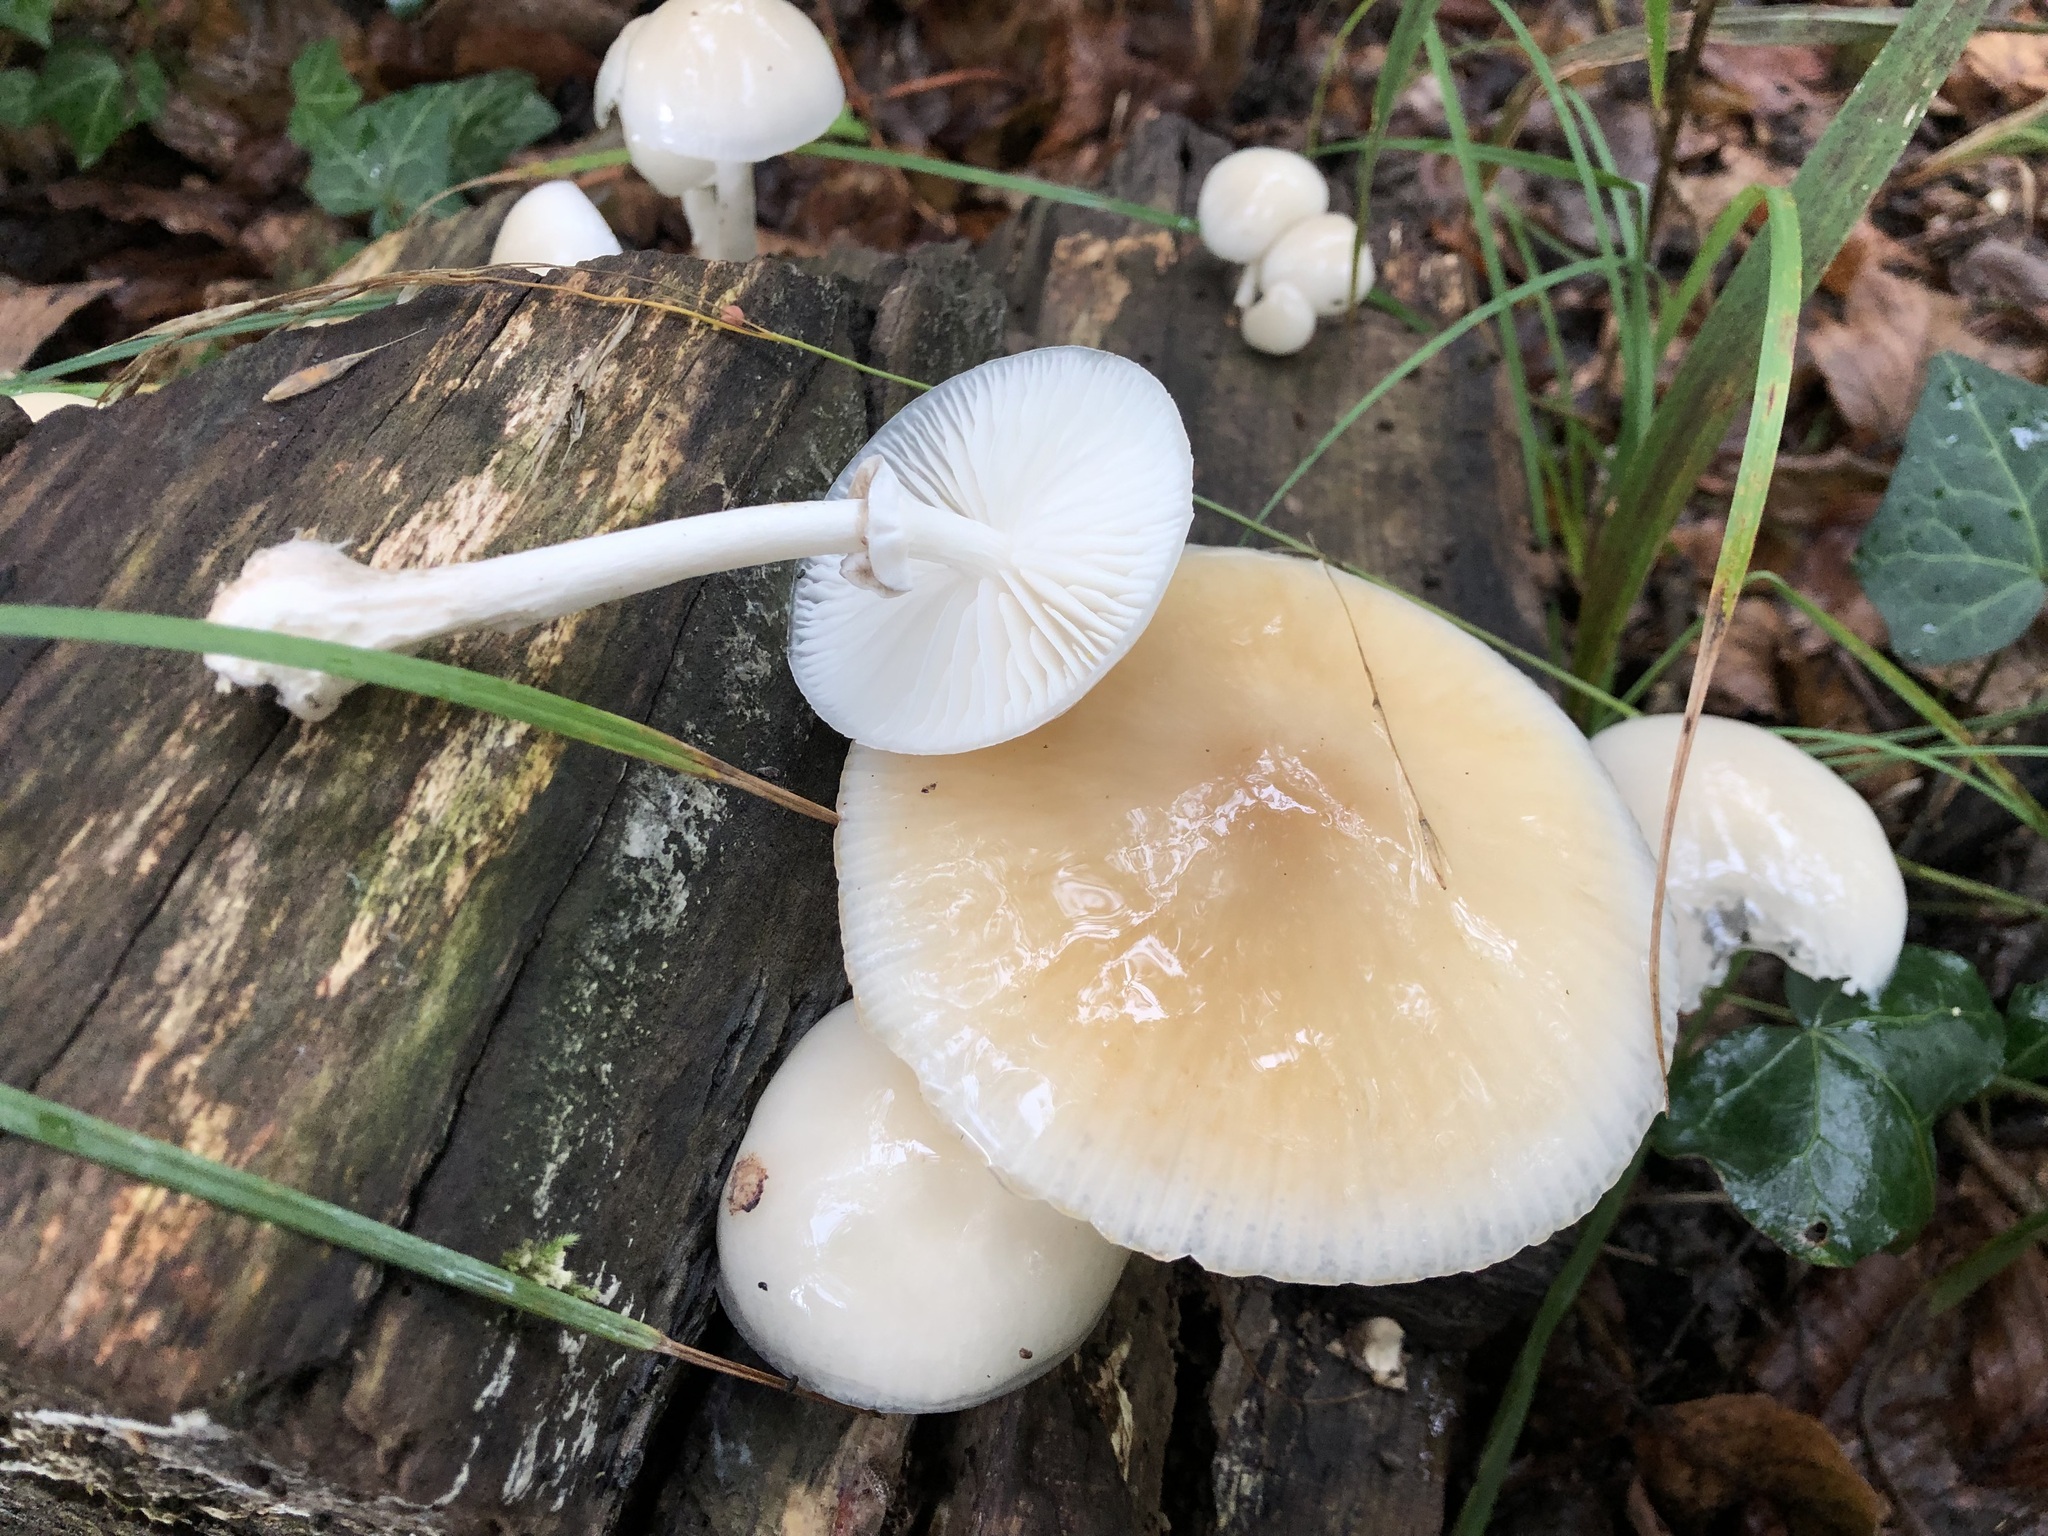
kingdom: Fungi
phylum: Basidiomycota
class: Agaricomycetes
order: Agaricales
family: Physalacriaceae
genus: Mucidula
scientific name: Mucidula mucida
